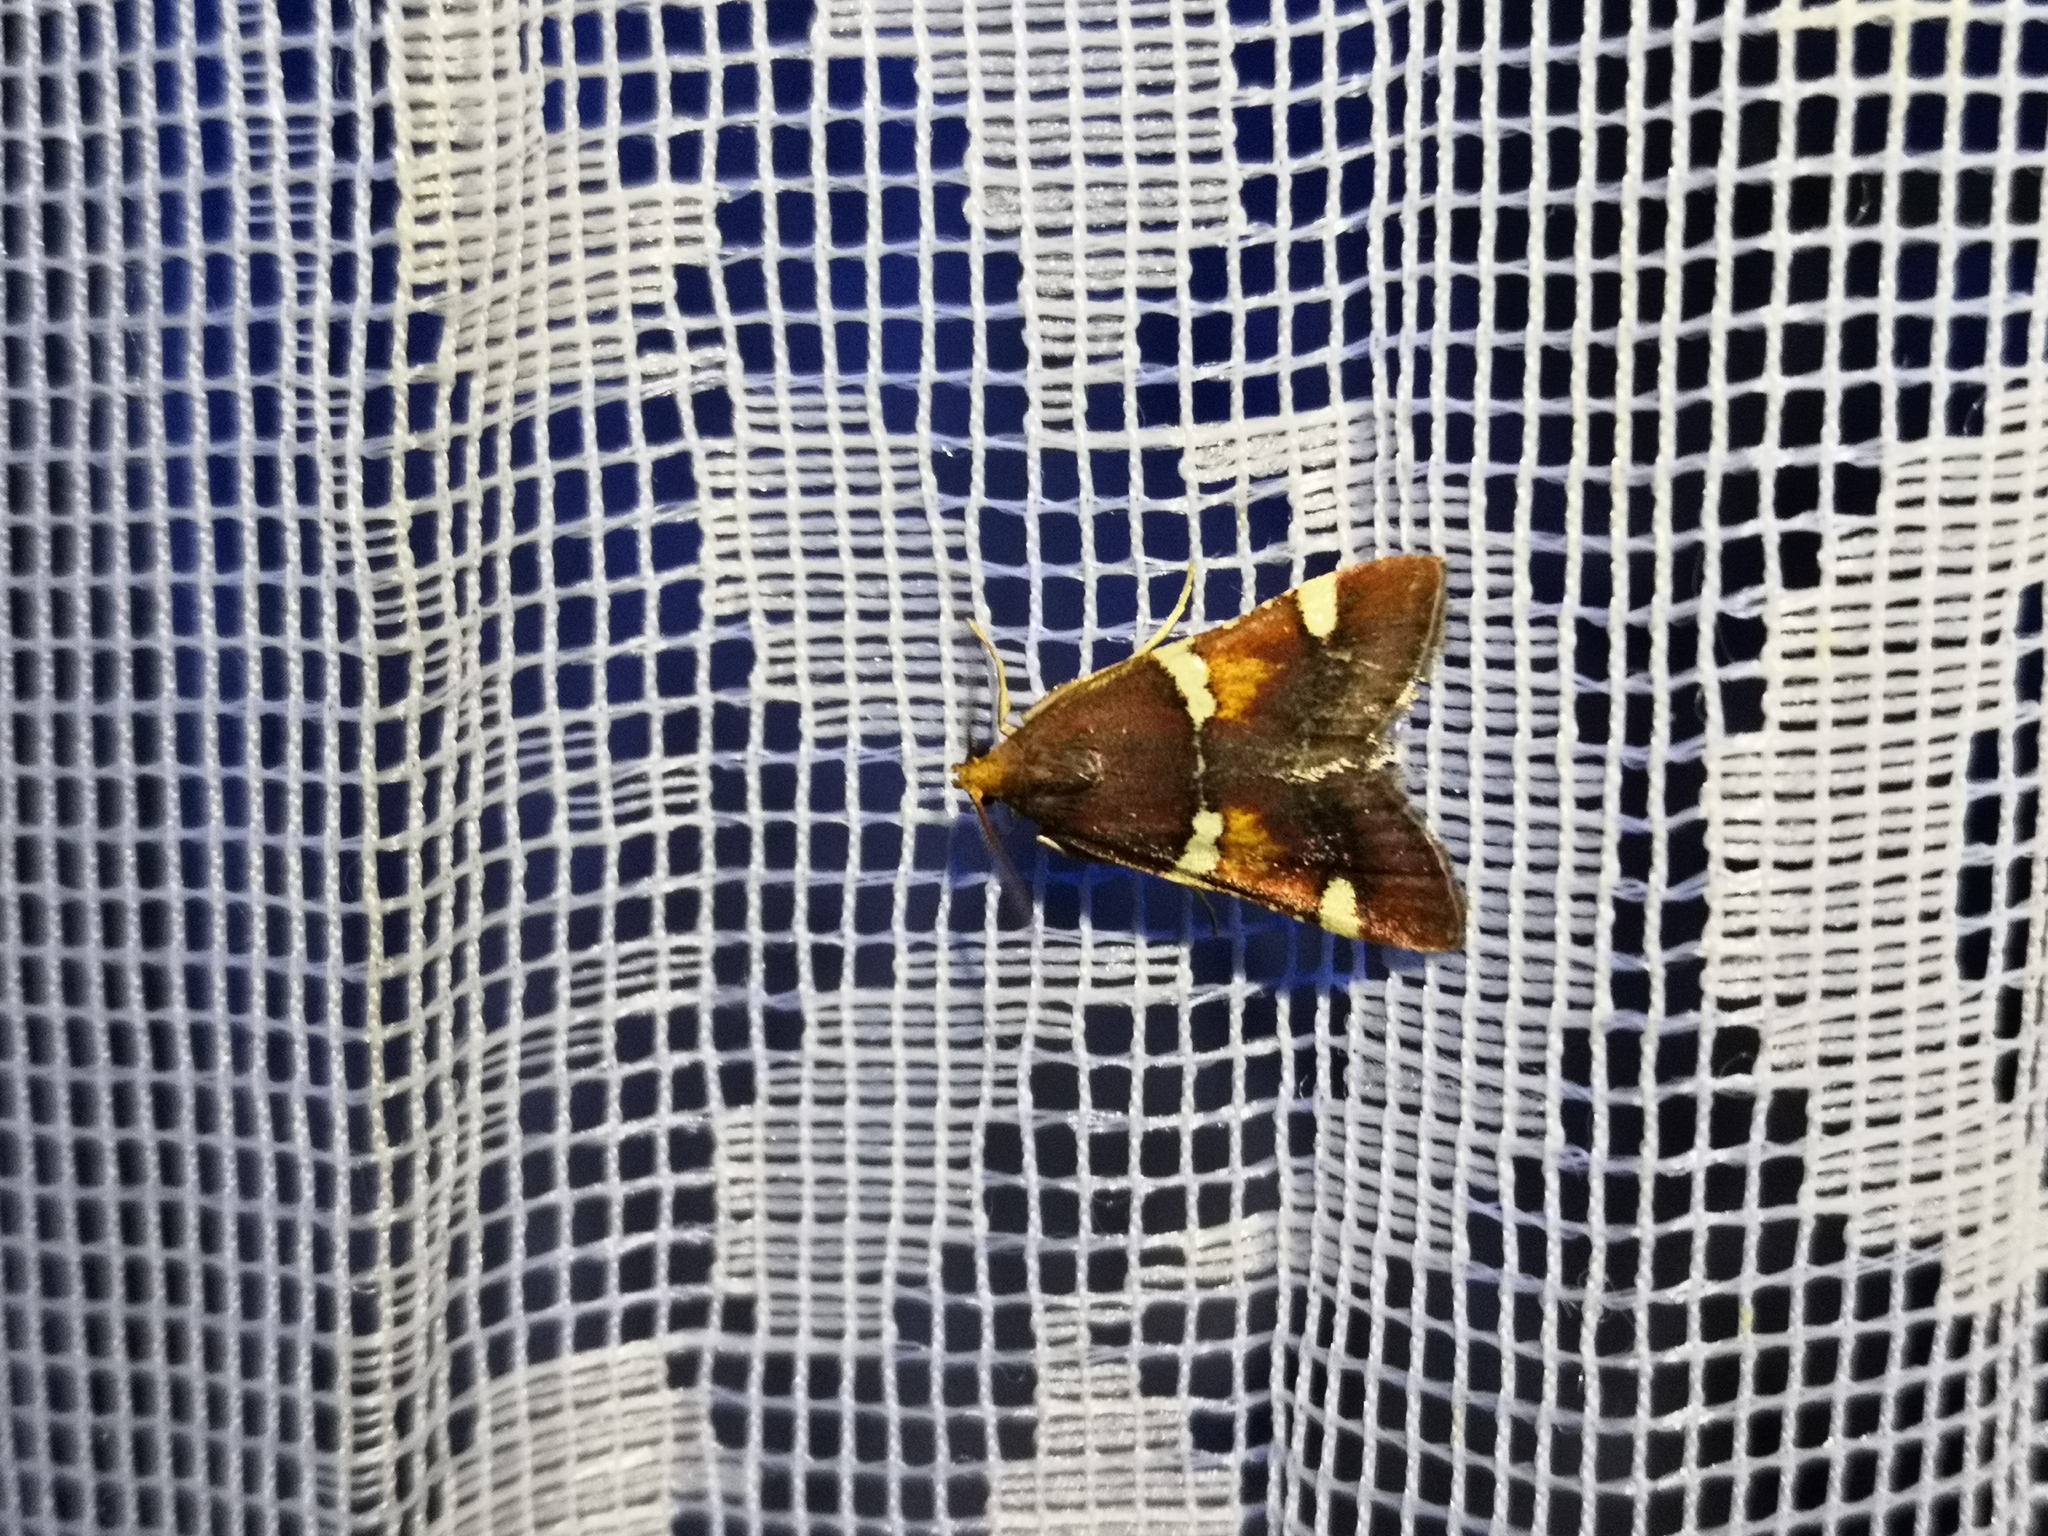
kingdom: Animalia
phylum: Arthropoda
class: Insecta
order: Lepidoptera
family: Pyralidae
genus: Pyralis
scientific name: Pyralis regalis
